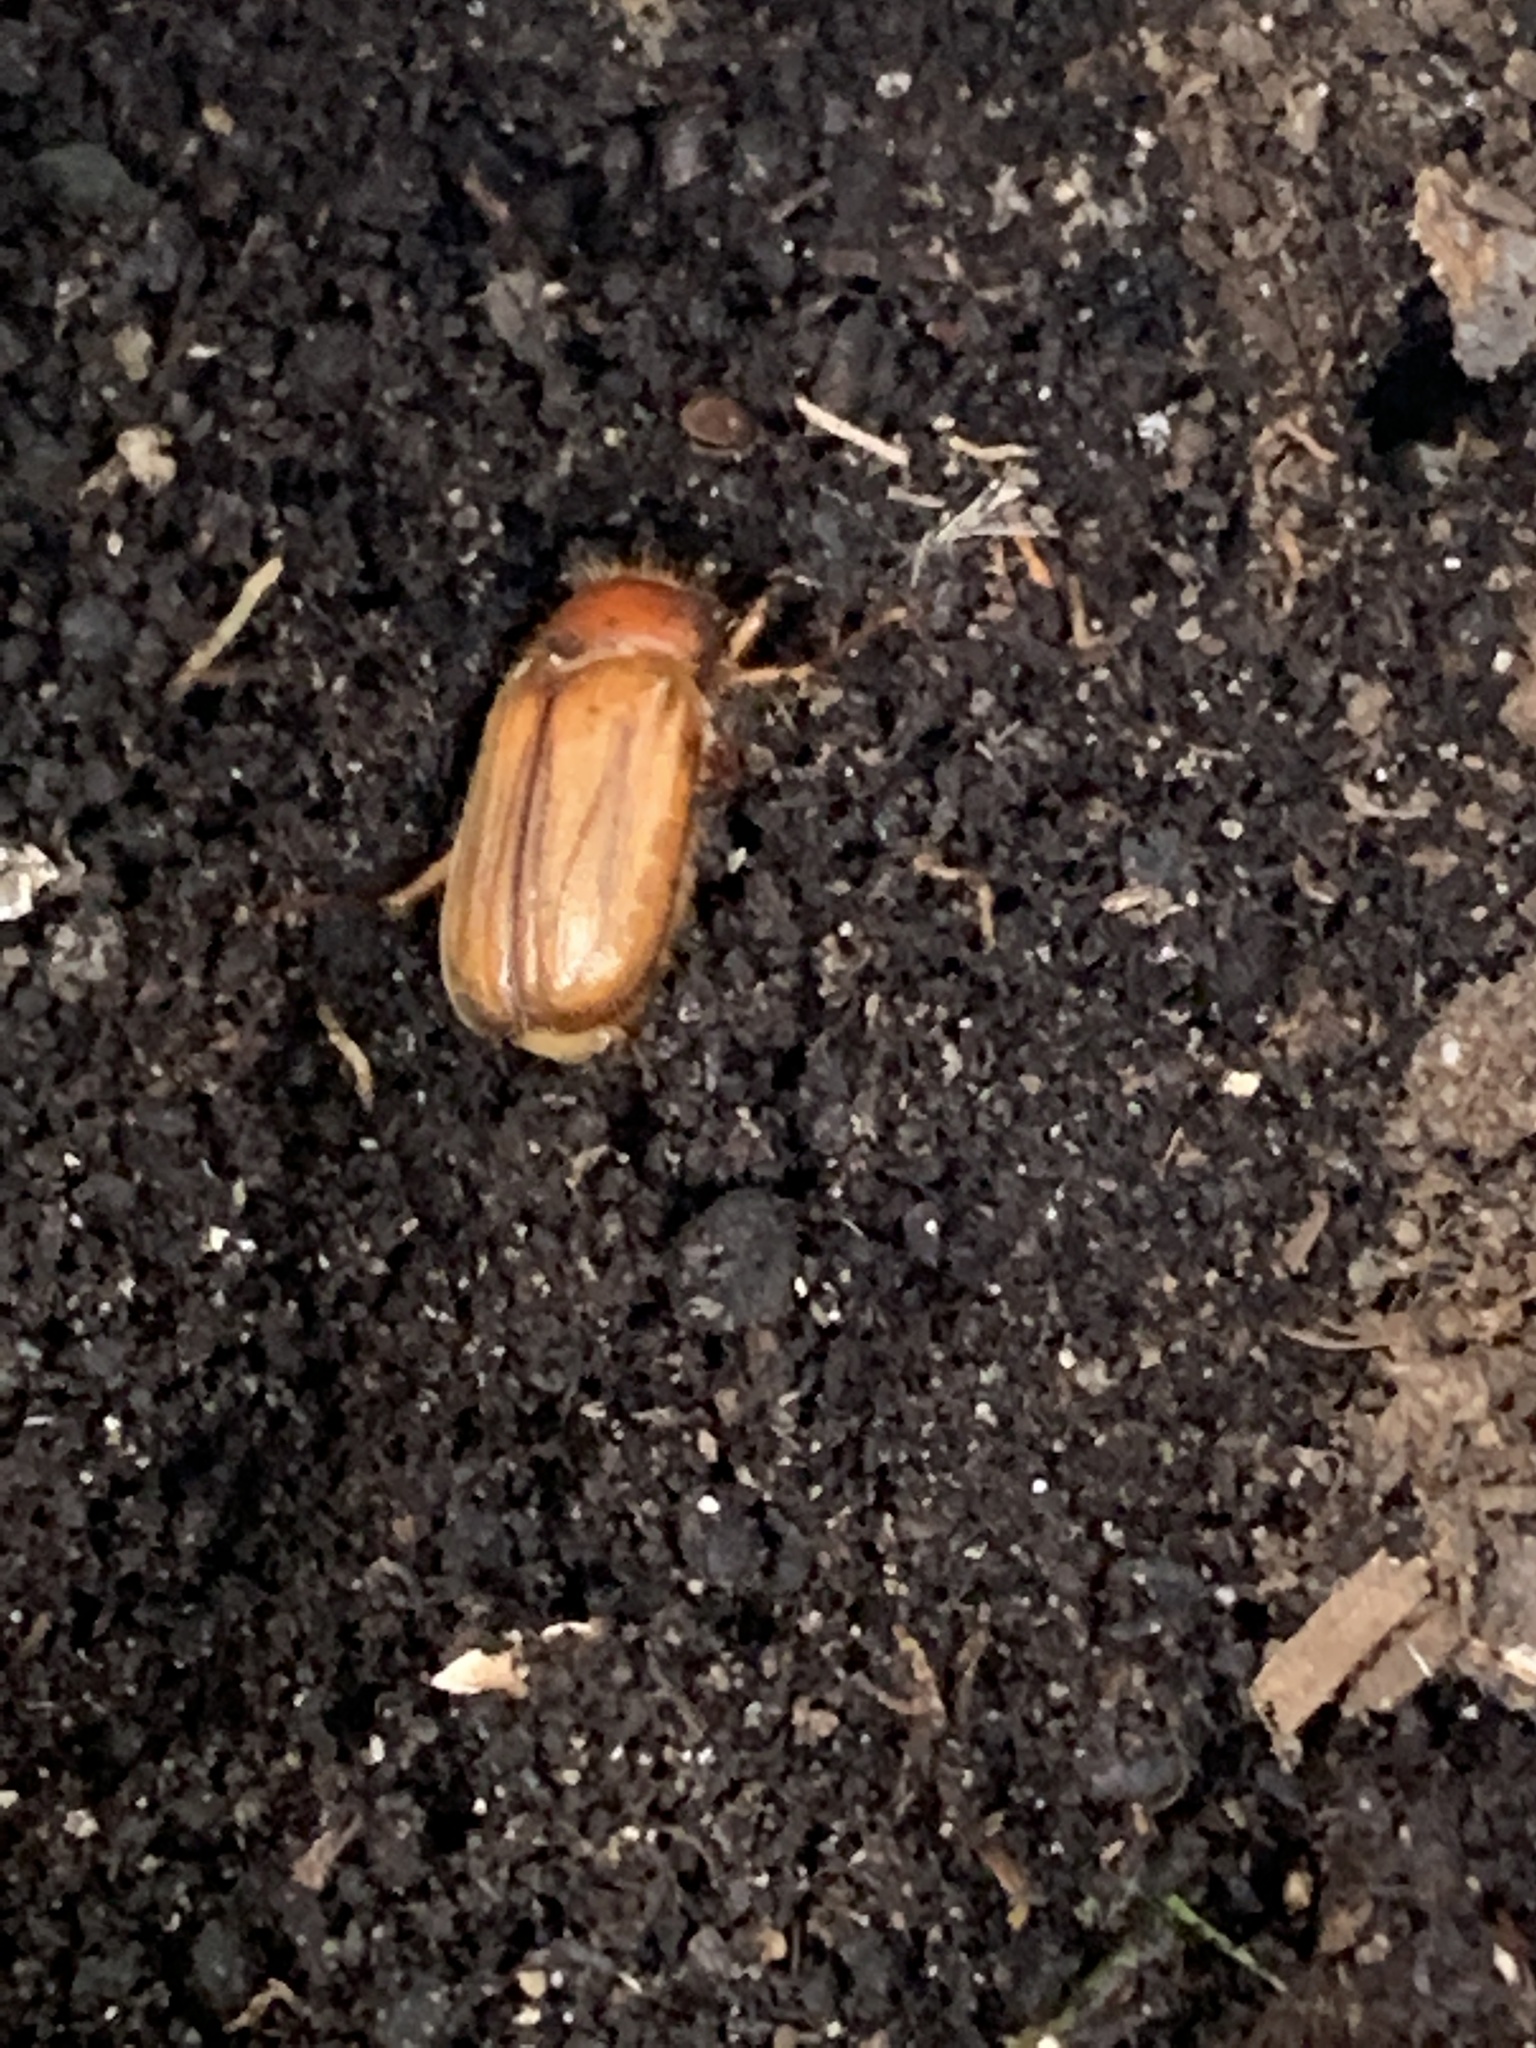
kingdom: Animalia
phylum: Arthropoda
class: Insecta
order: Coleoptera
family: Scarabaeidae
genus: Amphimallon
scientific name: Amphimallon majale
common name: European chafer
